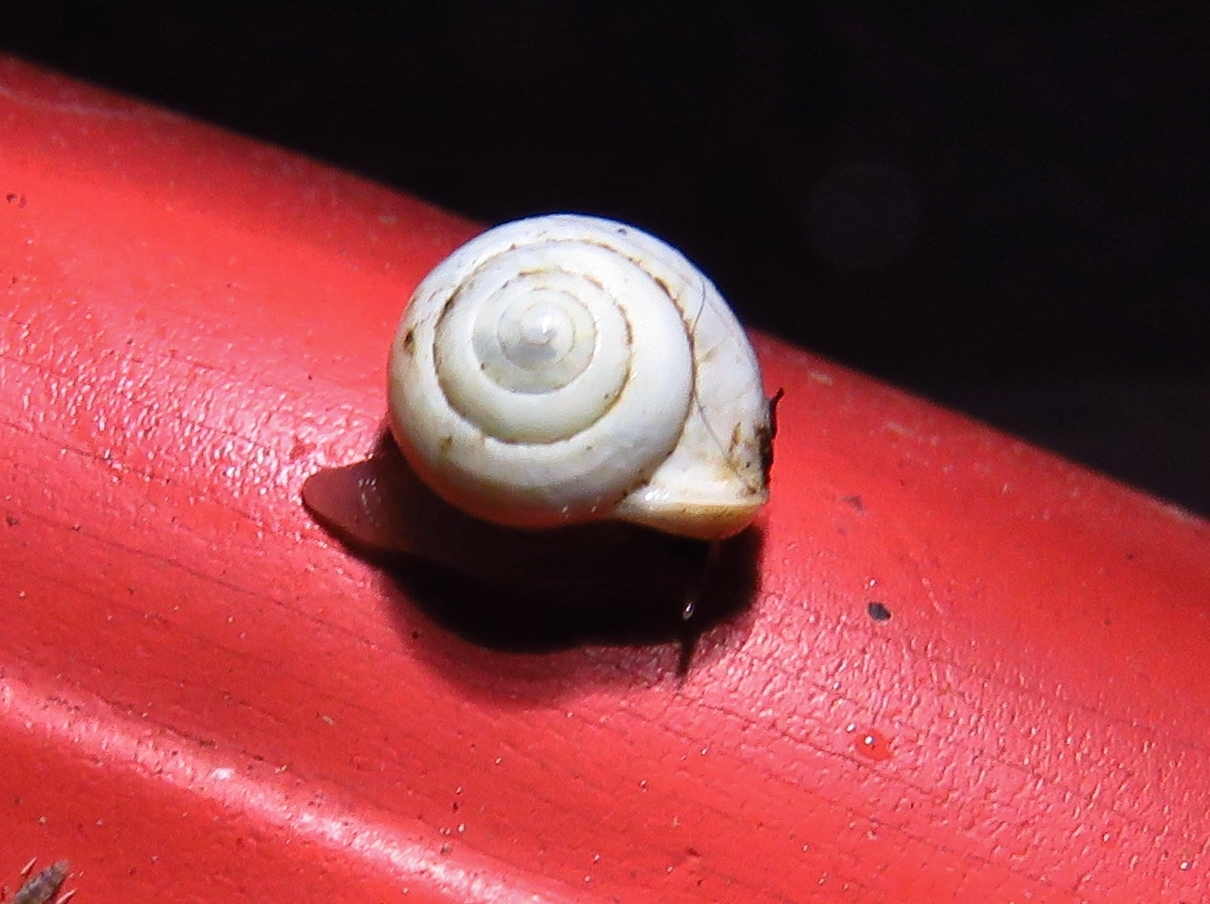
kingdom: Animalia
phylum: Mollusca
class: Gastropoda
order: Cycloneritida
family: Helicinidae
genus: Helicina
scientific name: Helicina orbiculata
